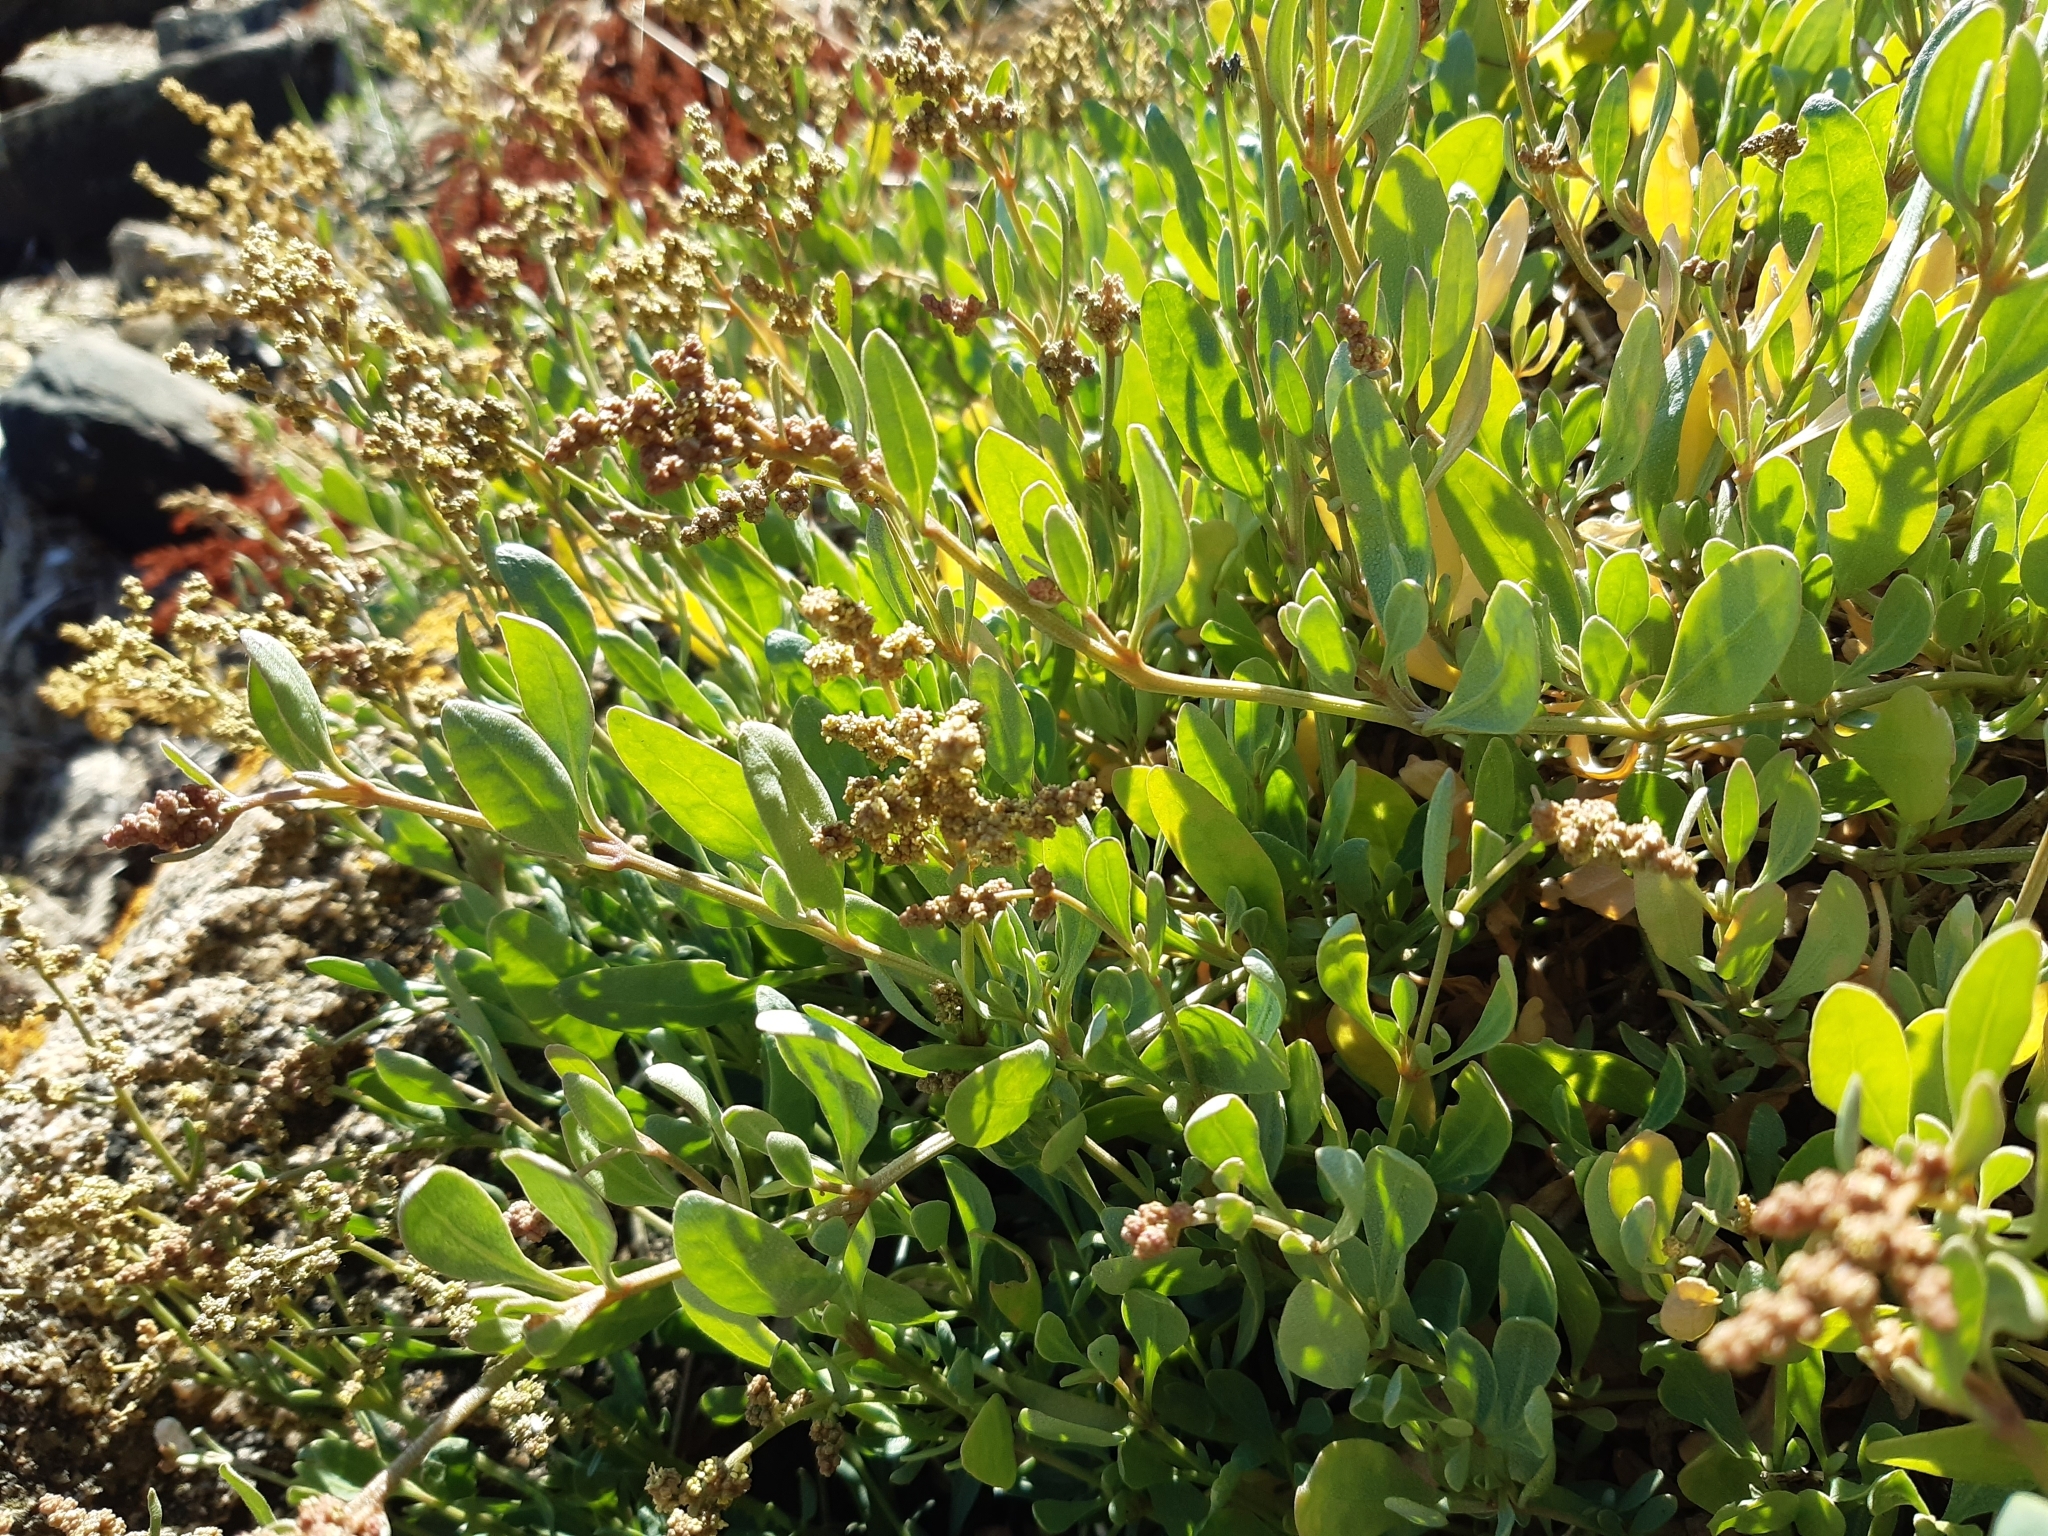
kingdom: Plantae
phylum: Tracheophyta
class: Magnoliopsida
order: Caryophyllales
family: Amaranthaceae
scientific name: Amaranthaceae
